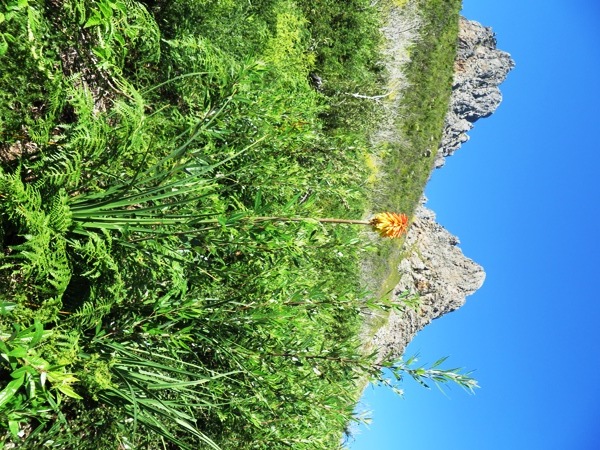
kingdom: Plantae
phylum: Tracheophyta
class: Liliopsida
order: Asparagales
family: Asphodelaceae
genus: Kniphofia
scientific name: Kniphofia uvaria
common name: Red-hot-poker
